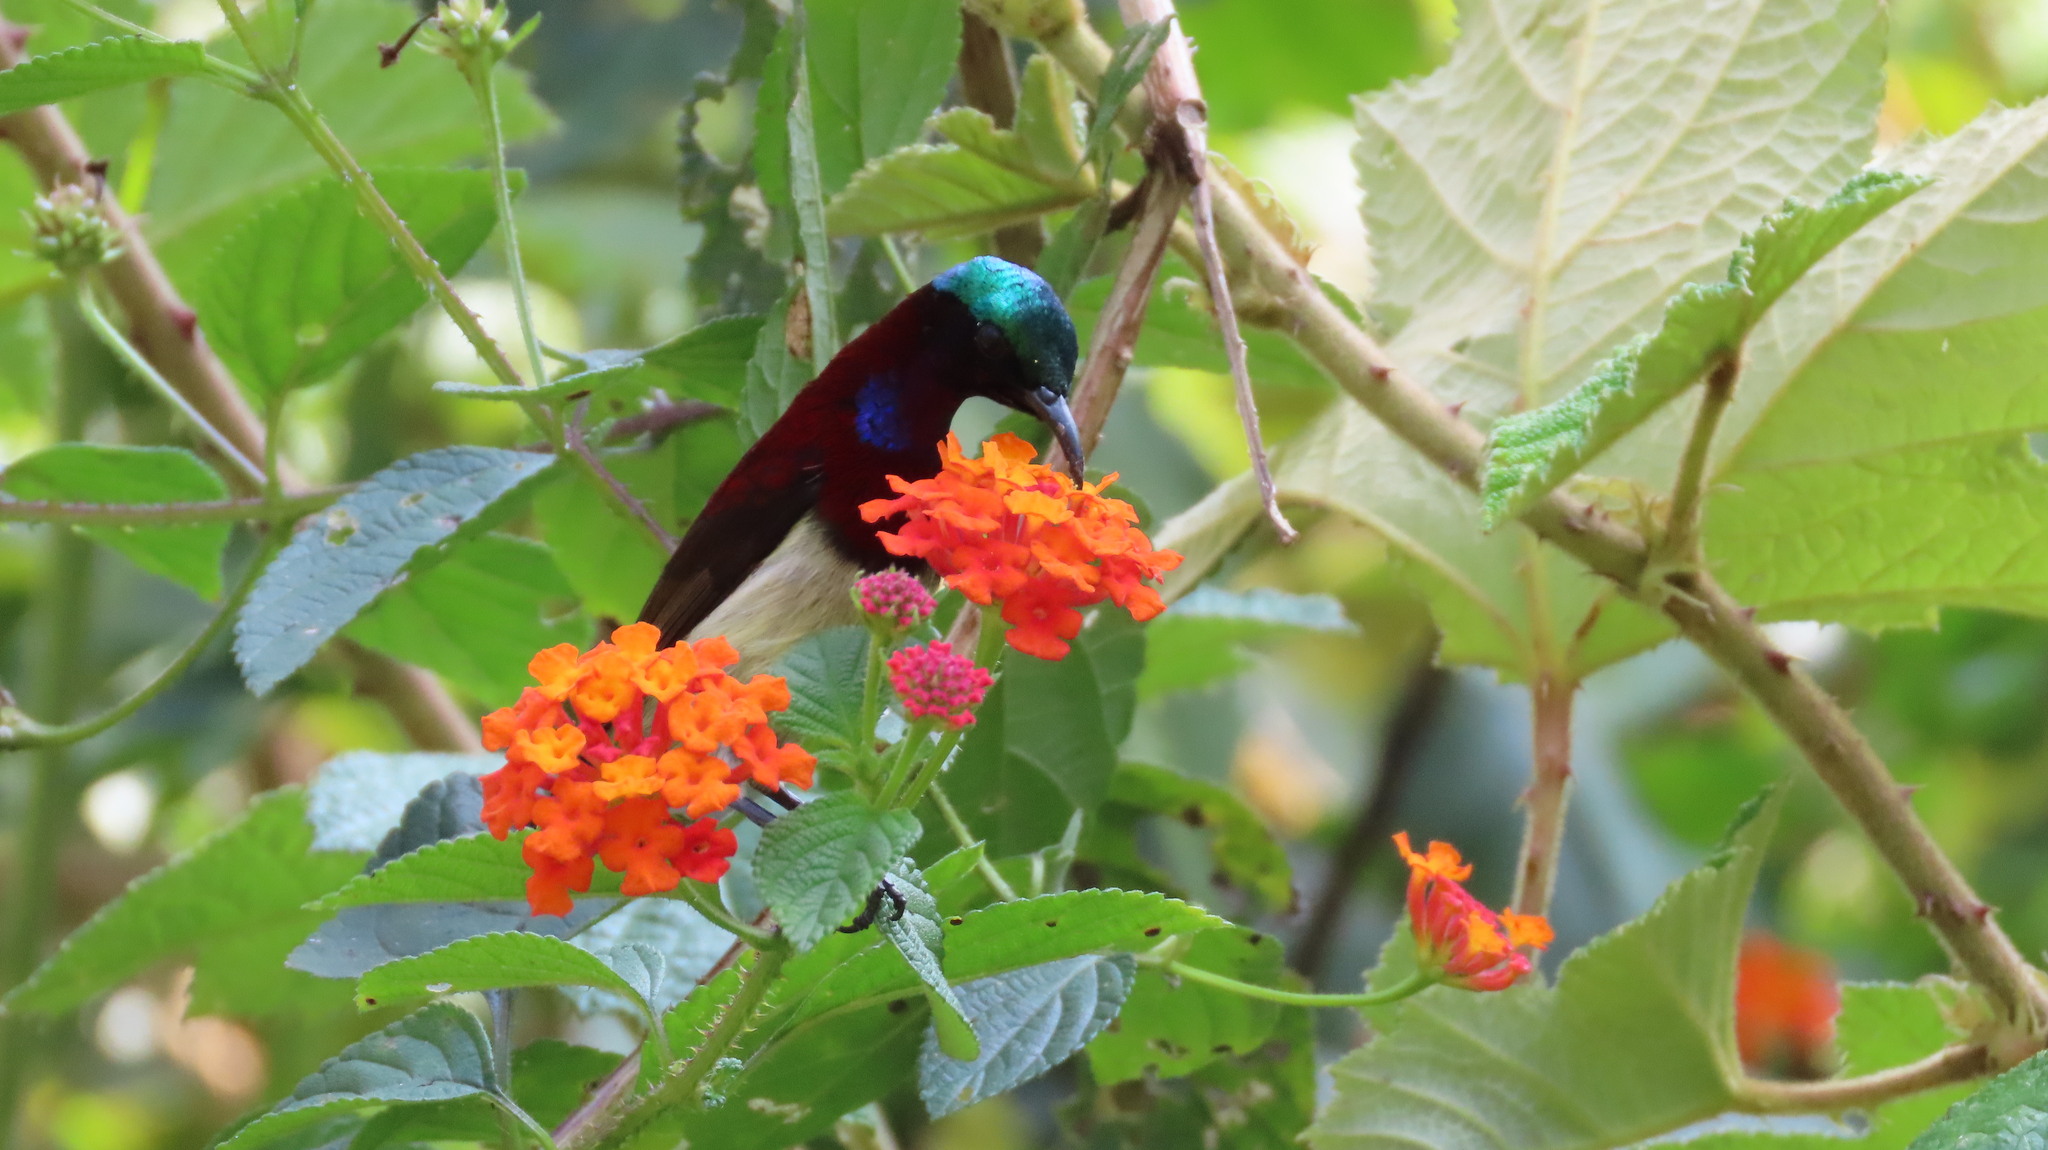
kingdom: Animalia
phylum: Chordata
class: Aves
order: Passeriformes
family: Nectariniidae
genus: Leptocoma
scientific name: Leptocoma minima
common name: Crimson-backed sunbird
